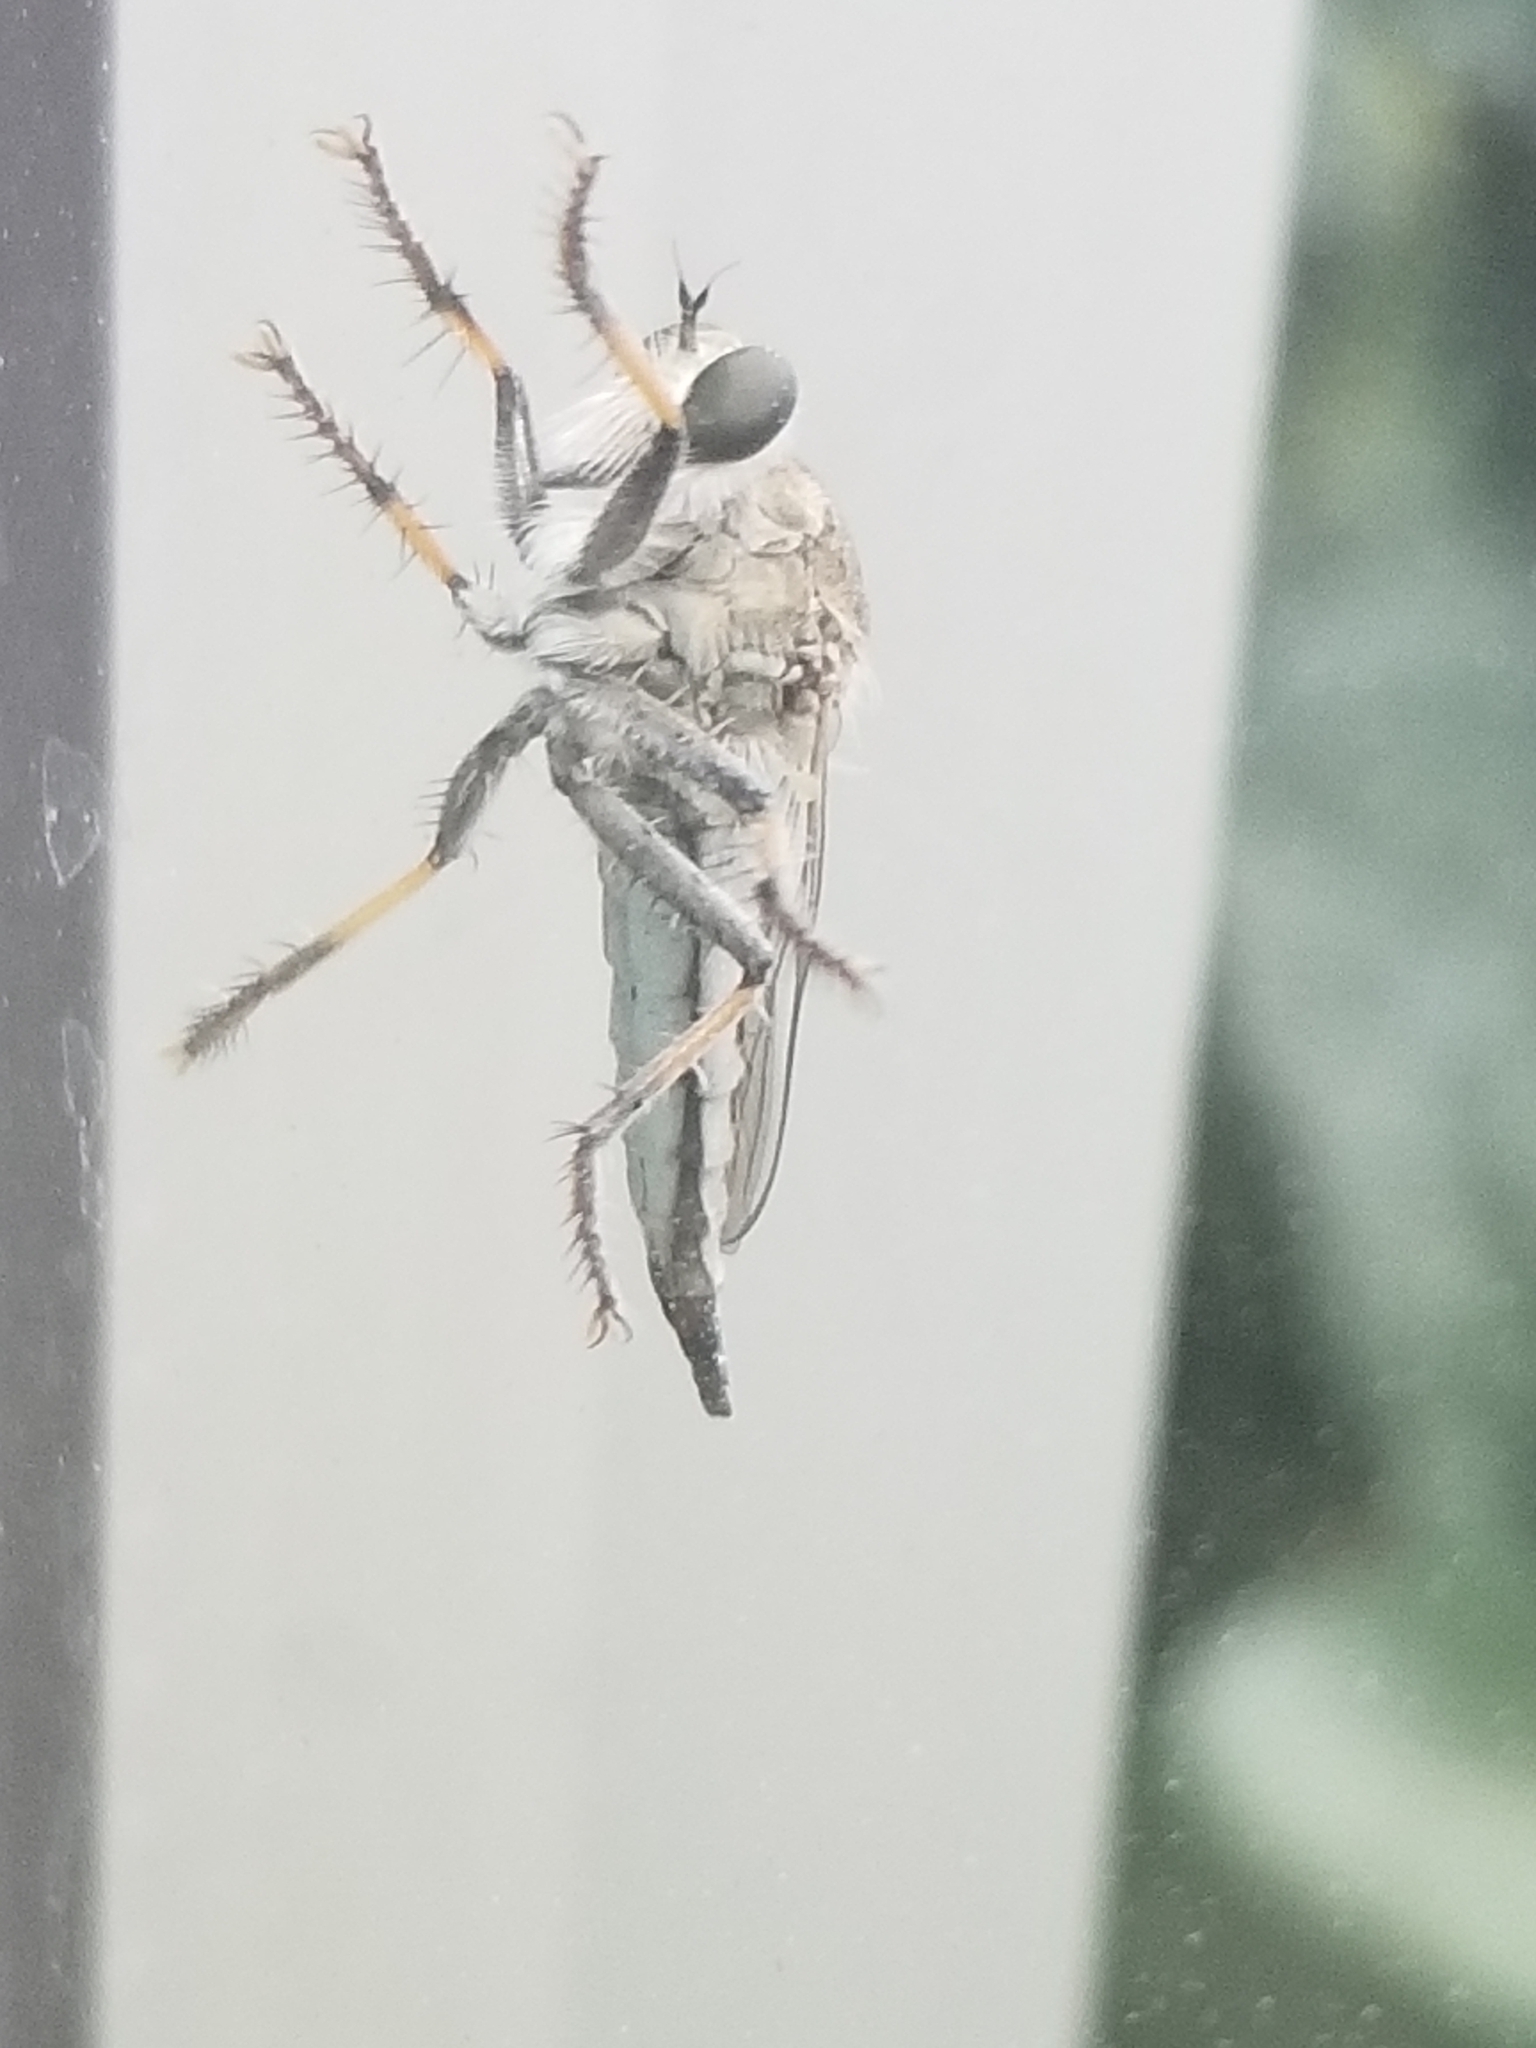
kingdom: Animalia
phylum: Arthropoda
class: Insecta
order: Diptera
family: Asilidae
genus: Efferia
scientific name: Efferia albibarbis
